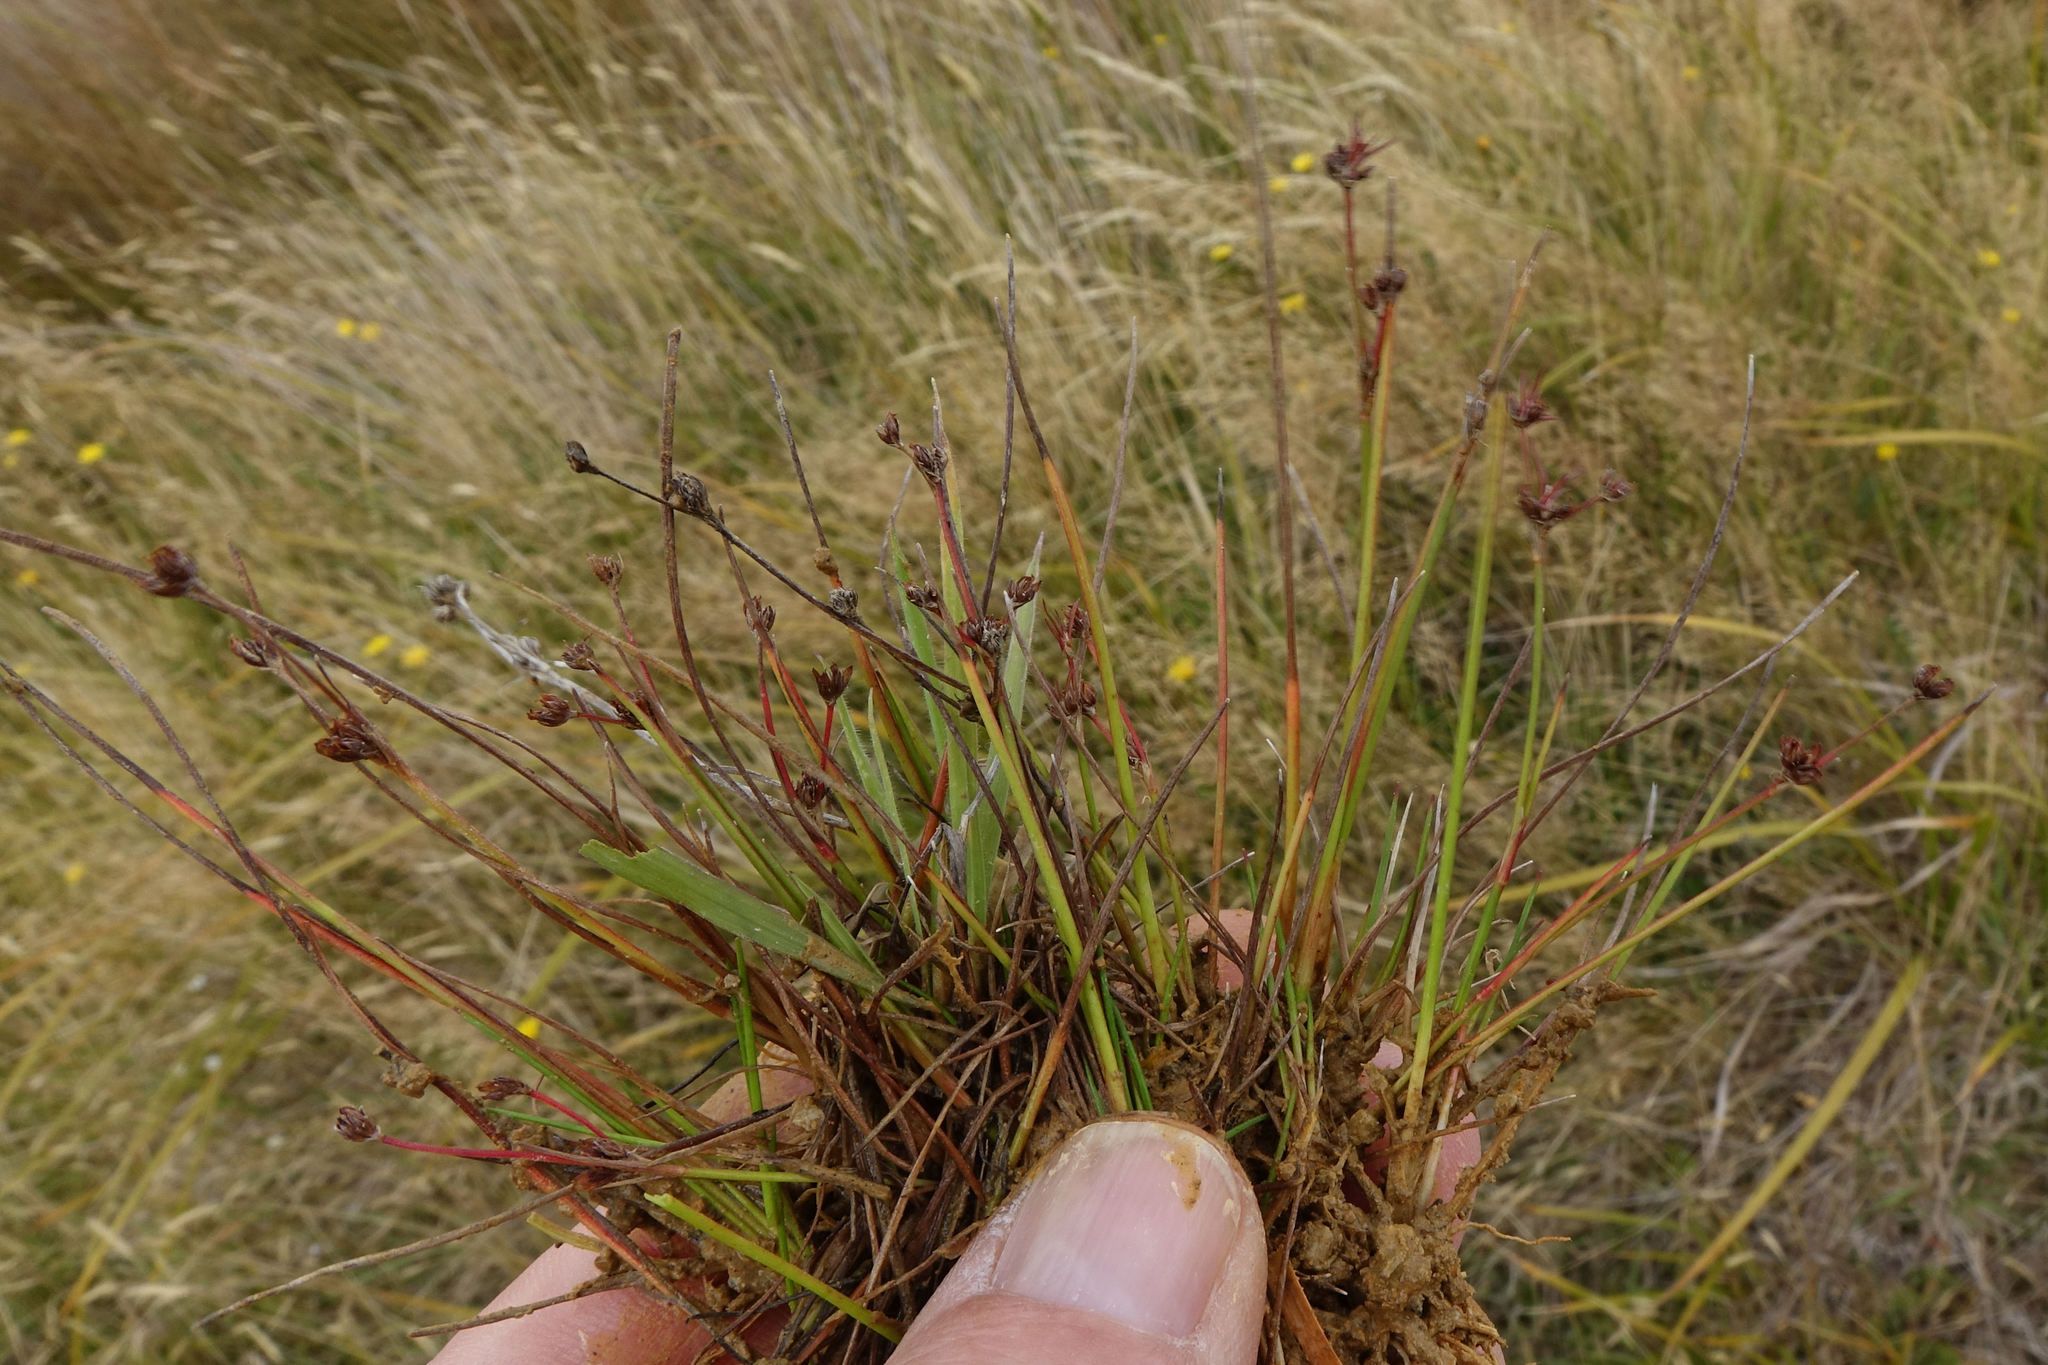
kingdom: Plantae
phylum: Tracheophyta
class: Liliopsida
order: Poales
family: Juncaceae
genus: Juncus
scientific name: Juncus bulbosus
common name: Bulbous rush
